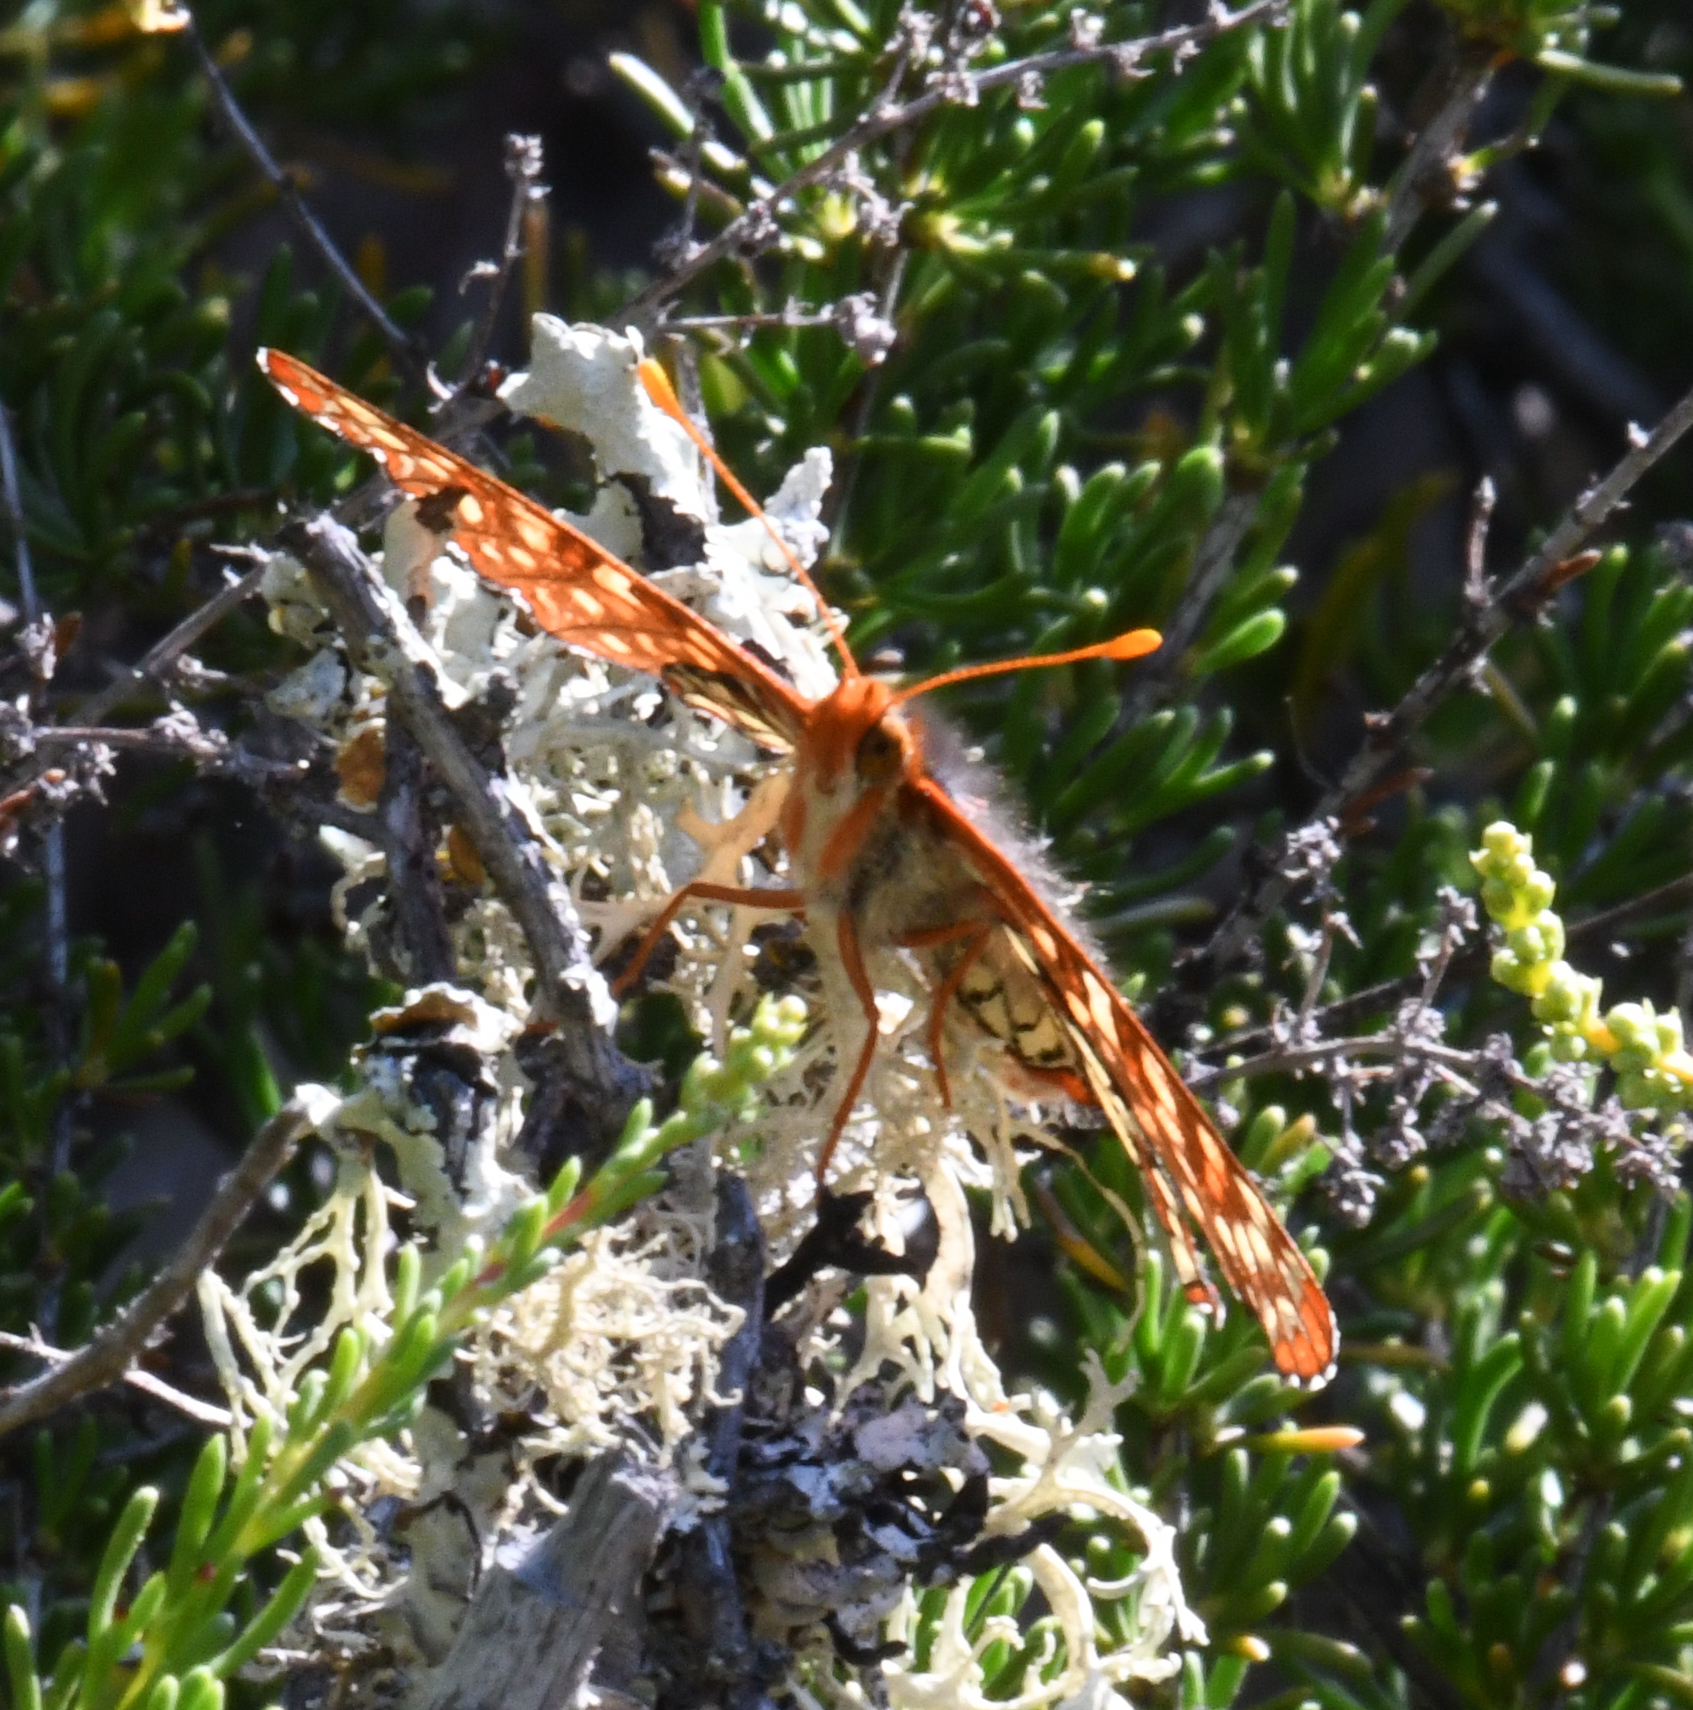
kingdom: Animalia
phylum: Arthropoda
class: Insecta
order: Lepidoptera
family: Nymphalidae
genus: Occidryas
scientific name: Occidryas chalcedona
